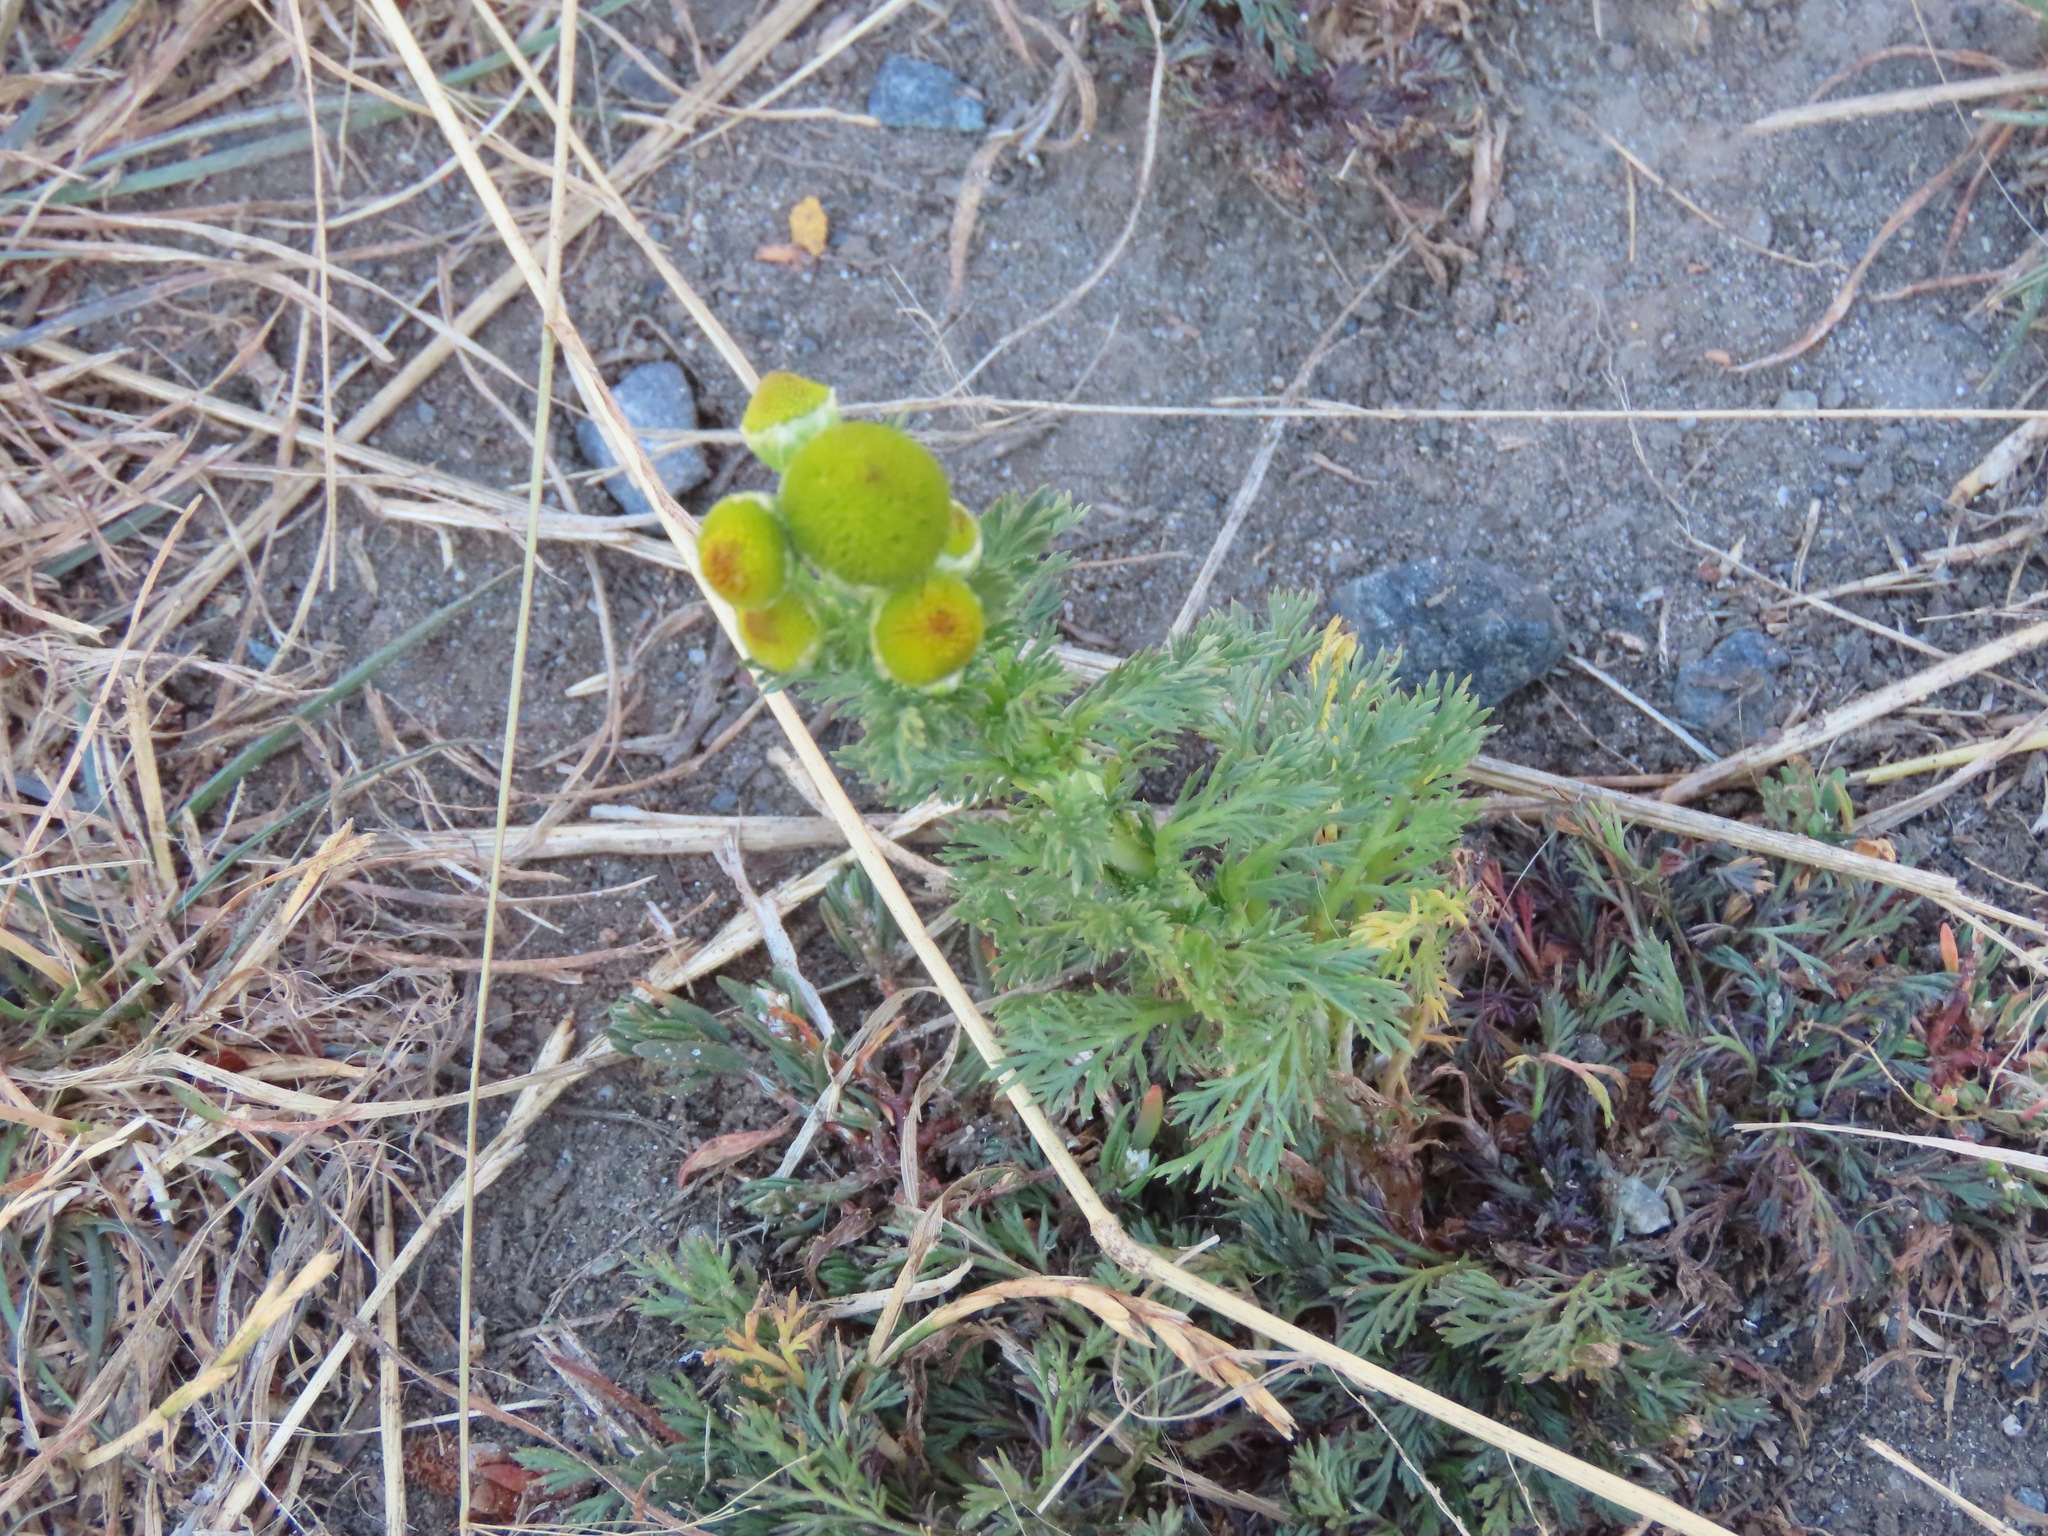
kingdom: Plantae
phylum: Tracheophyta
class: Magnoliopsida
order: Asterales
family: Asteraceae
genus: Matricaria
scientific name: Matricaria discoidea
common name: Disc mayweed
